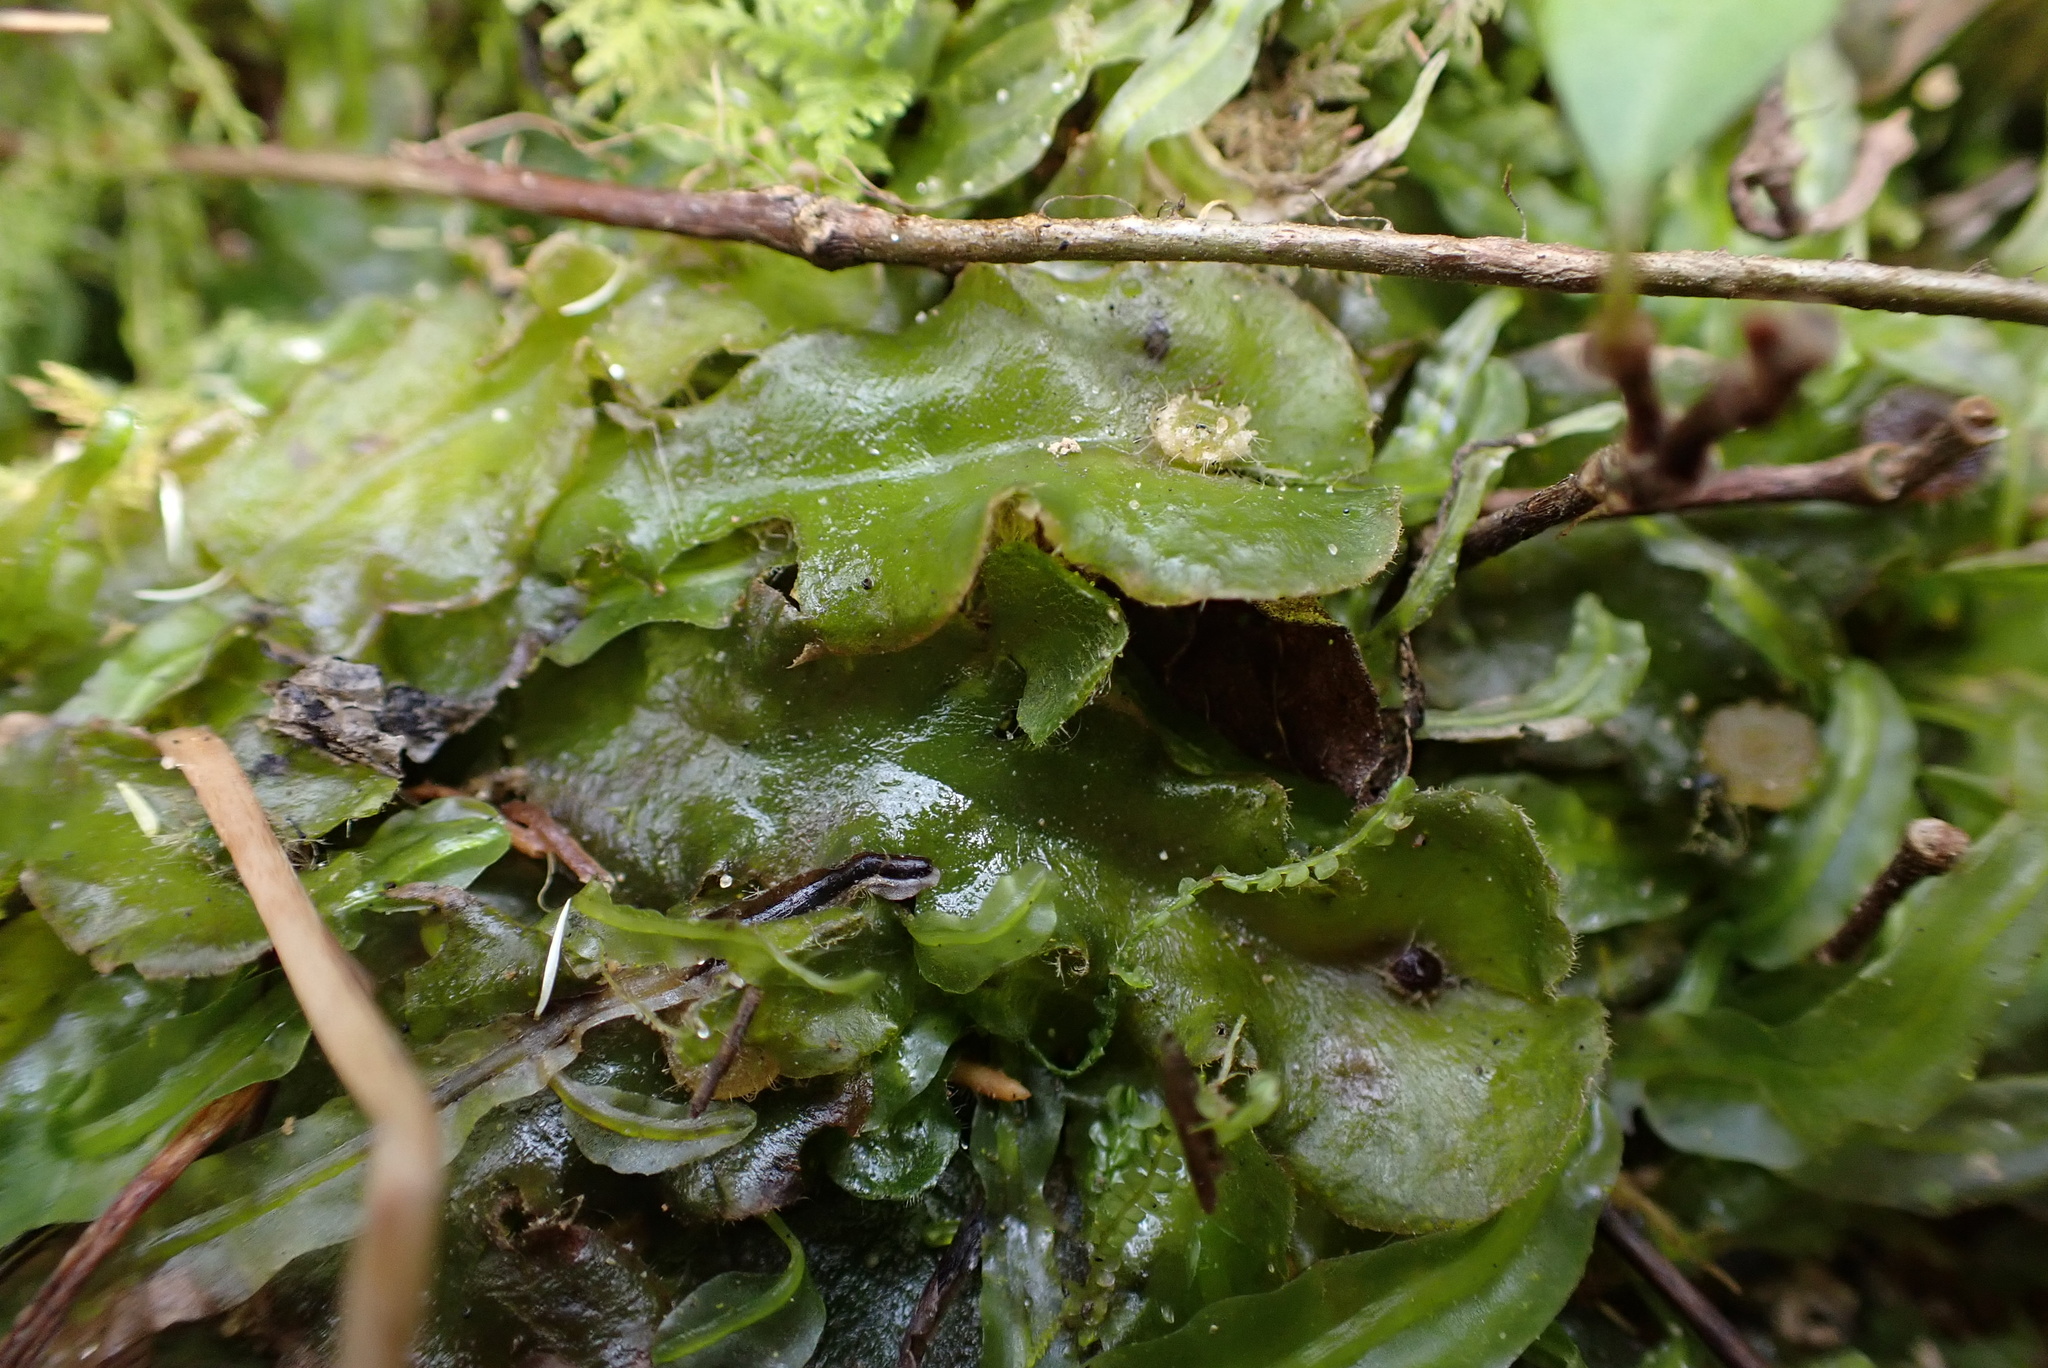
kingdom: Plantae
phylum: Marchantiophyta
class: Marchantiopsida
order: Marchantiales
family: Dumortieraceae
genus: Dumortiera
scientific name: Dumortiera hirsuta
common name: Dumortier's liverwort
